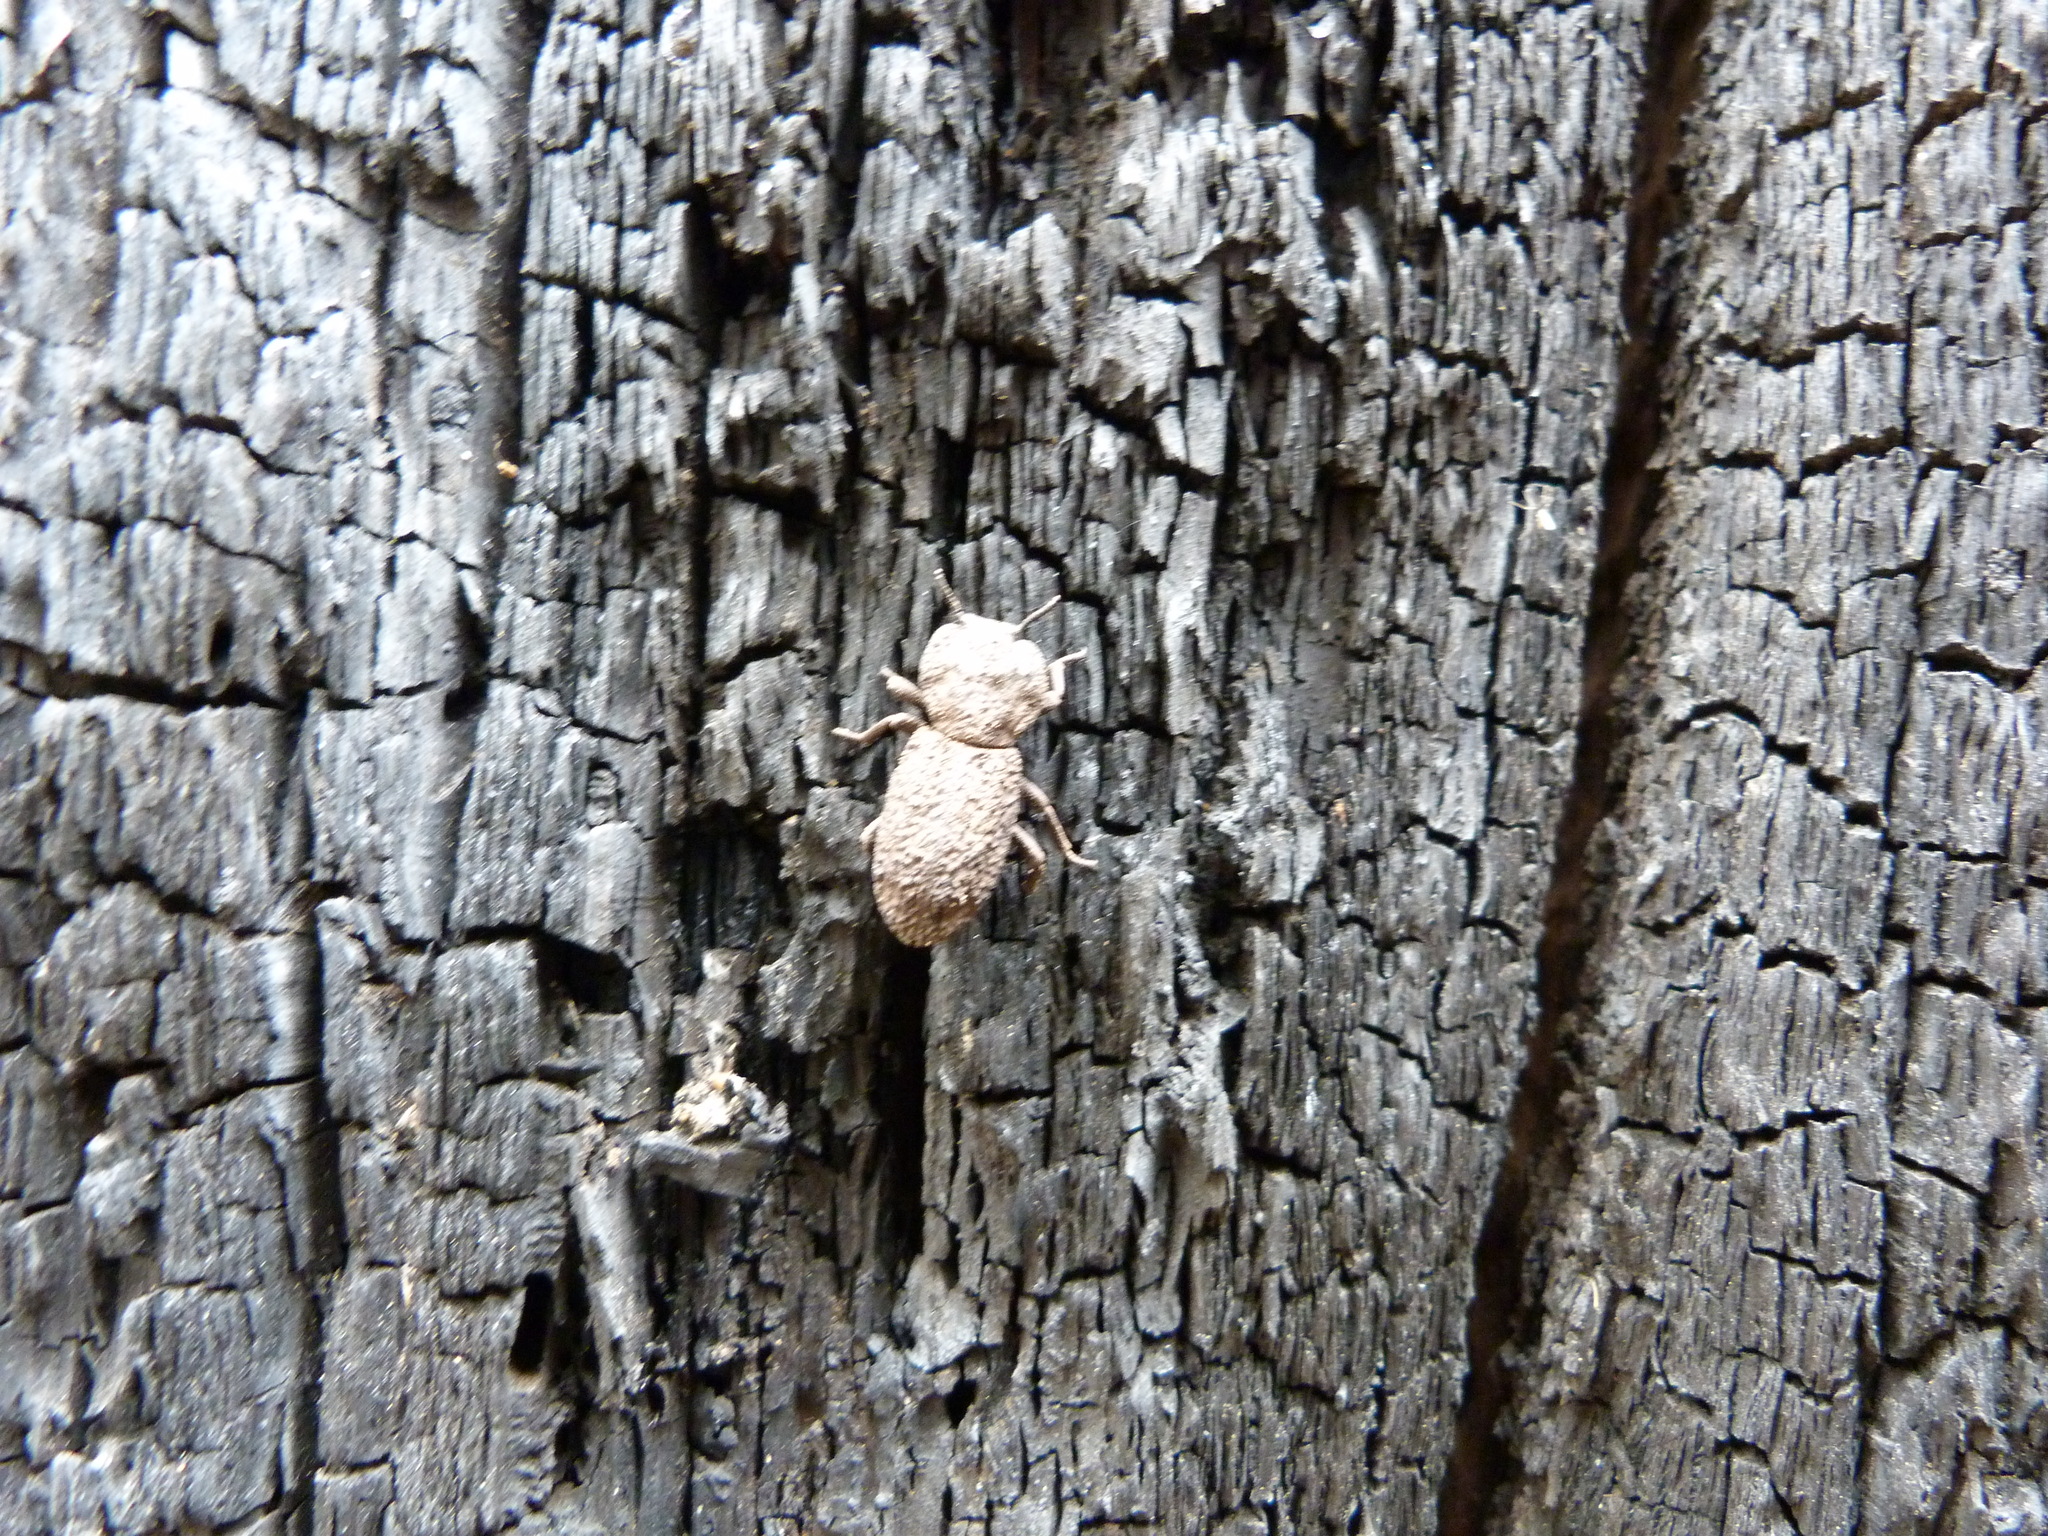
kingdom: Animalia
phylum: Arthropoda
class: Insecta
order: Coleoptera
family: Zopheridae
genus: Phloeodes
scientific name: Phloeodes diabolicus
